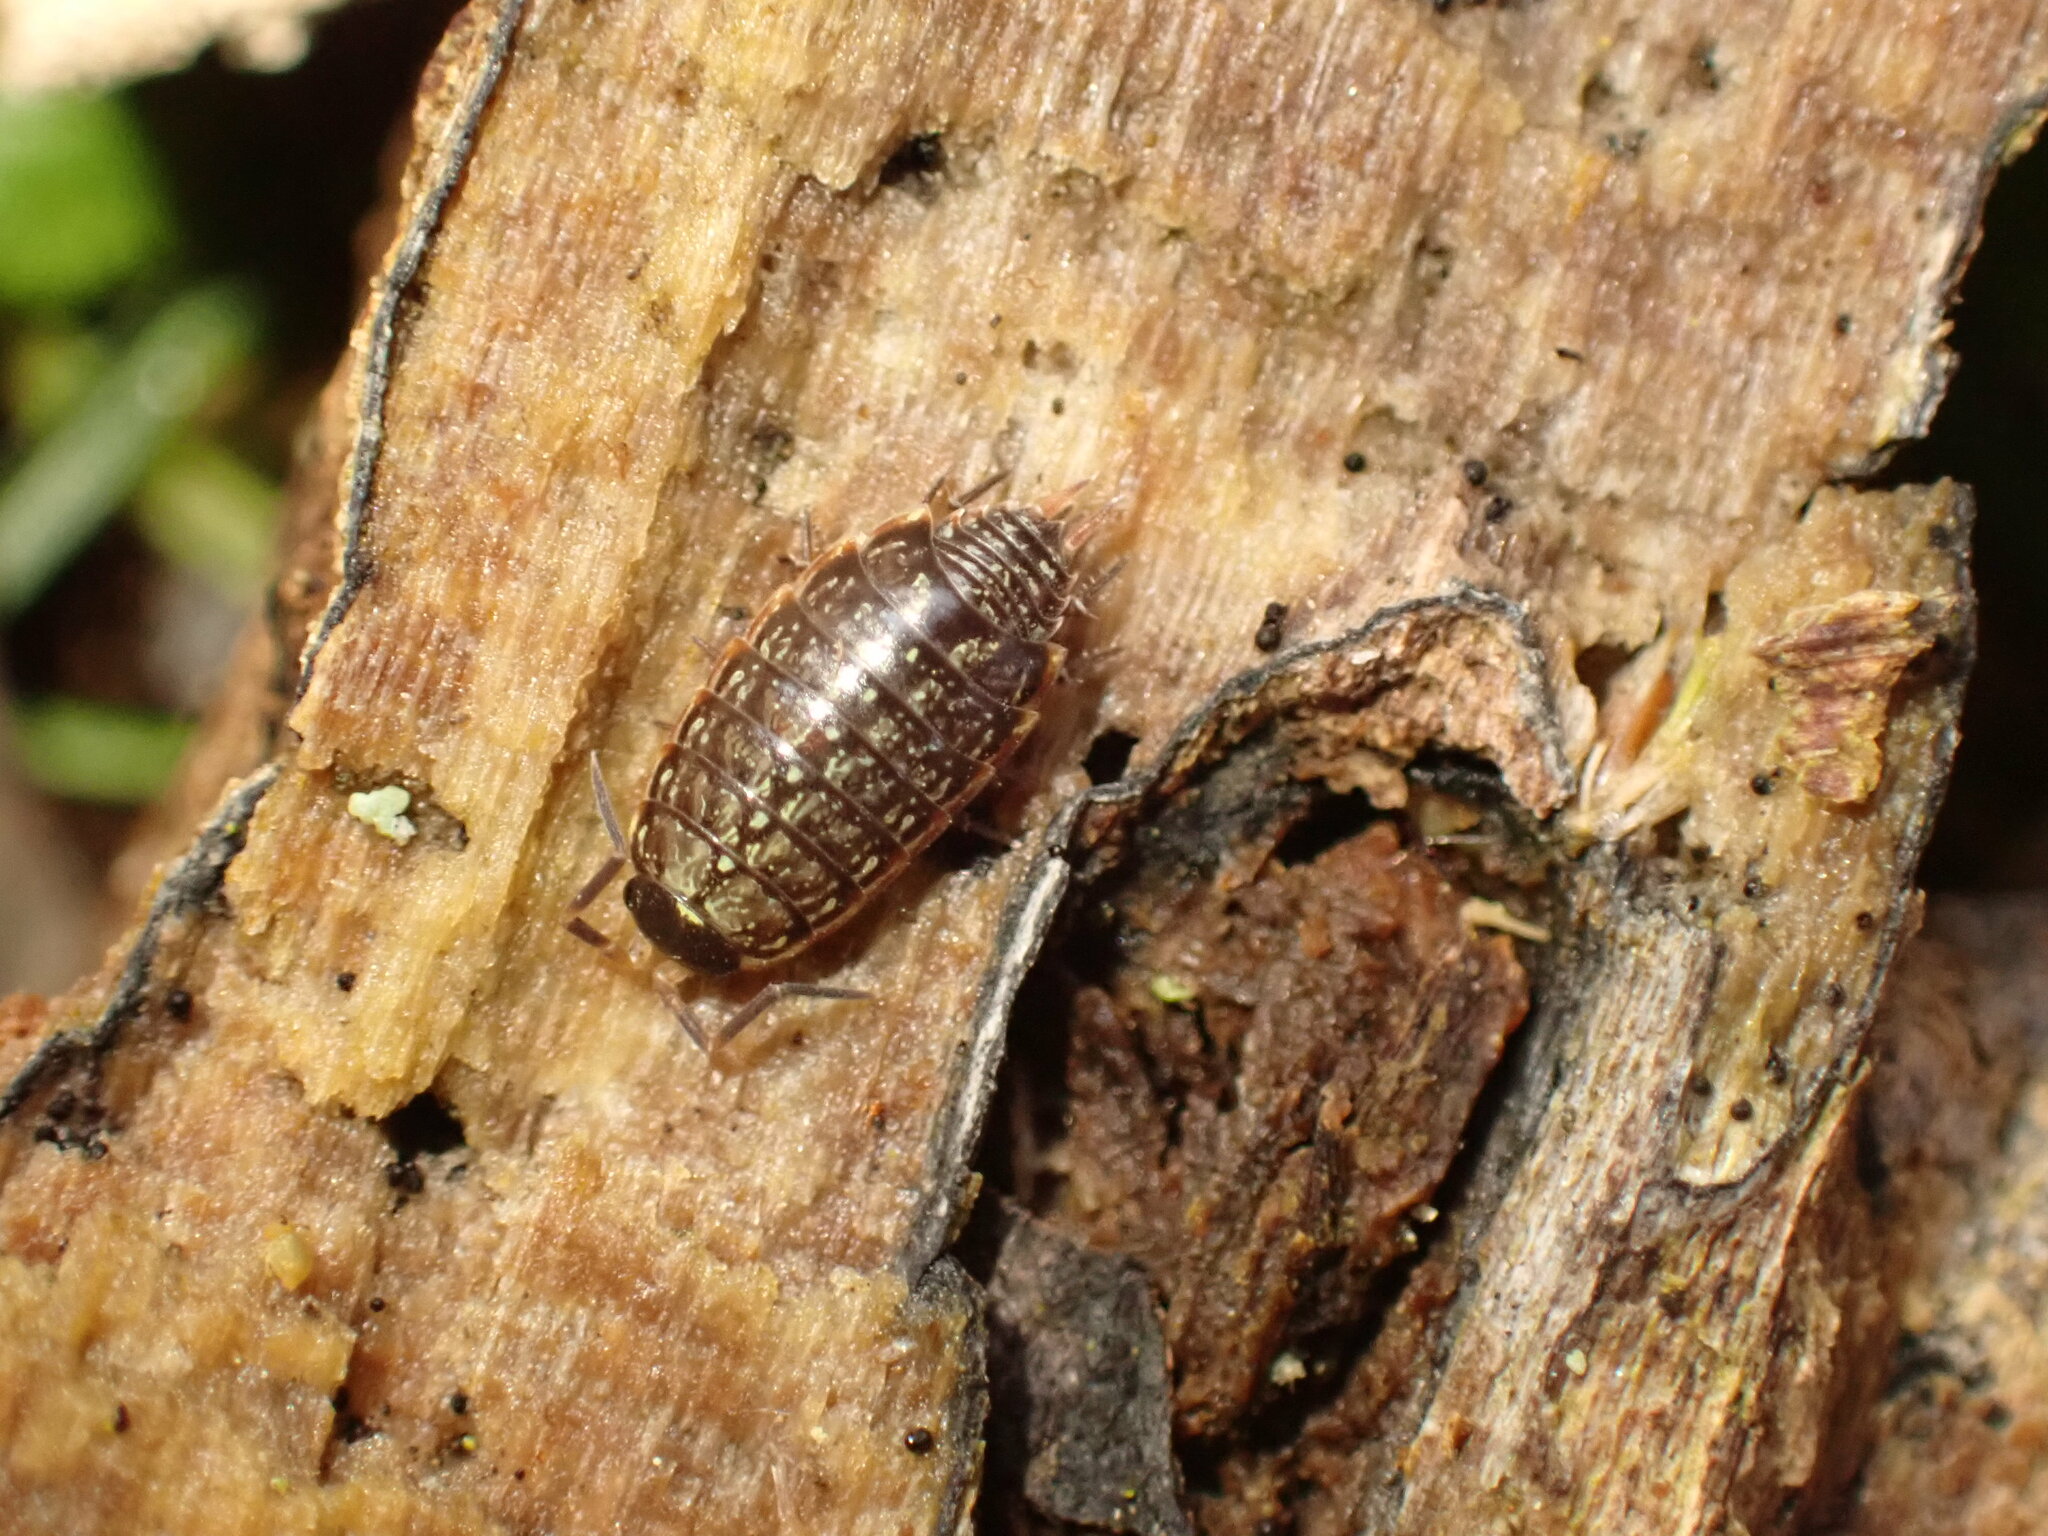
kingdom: Animalia
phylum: Arthropoda
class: Malacostraca
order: Isopoda
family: Philosciidae
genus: Philoscia
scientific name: Philoscia muscorum
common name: Common striped woodlouse
